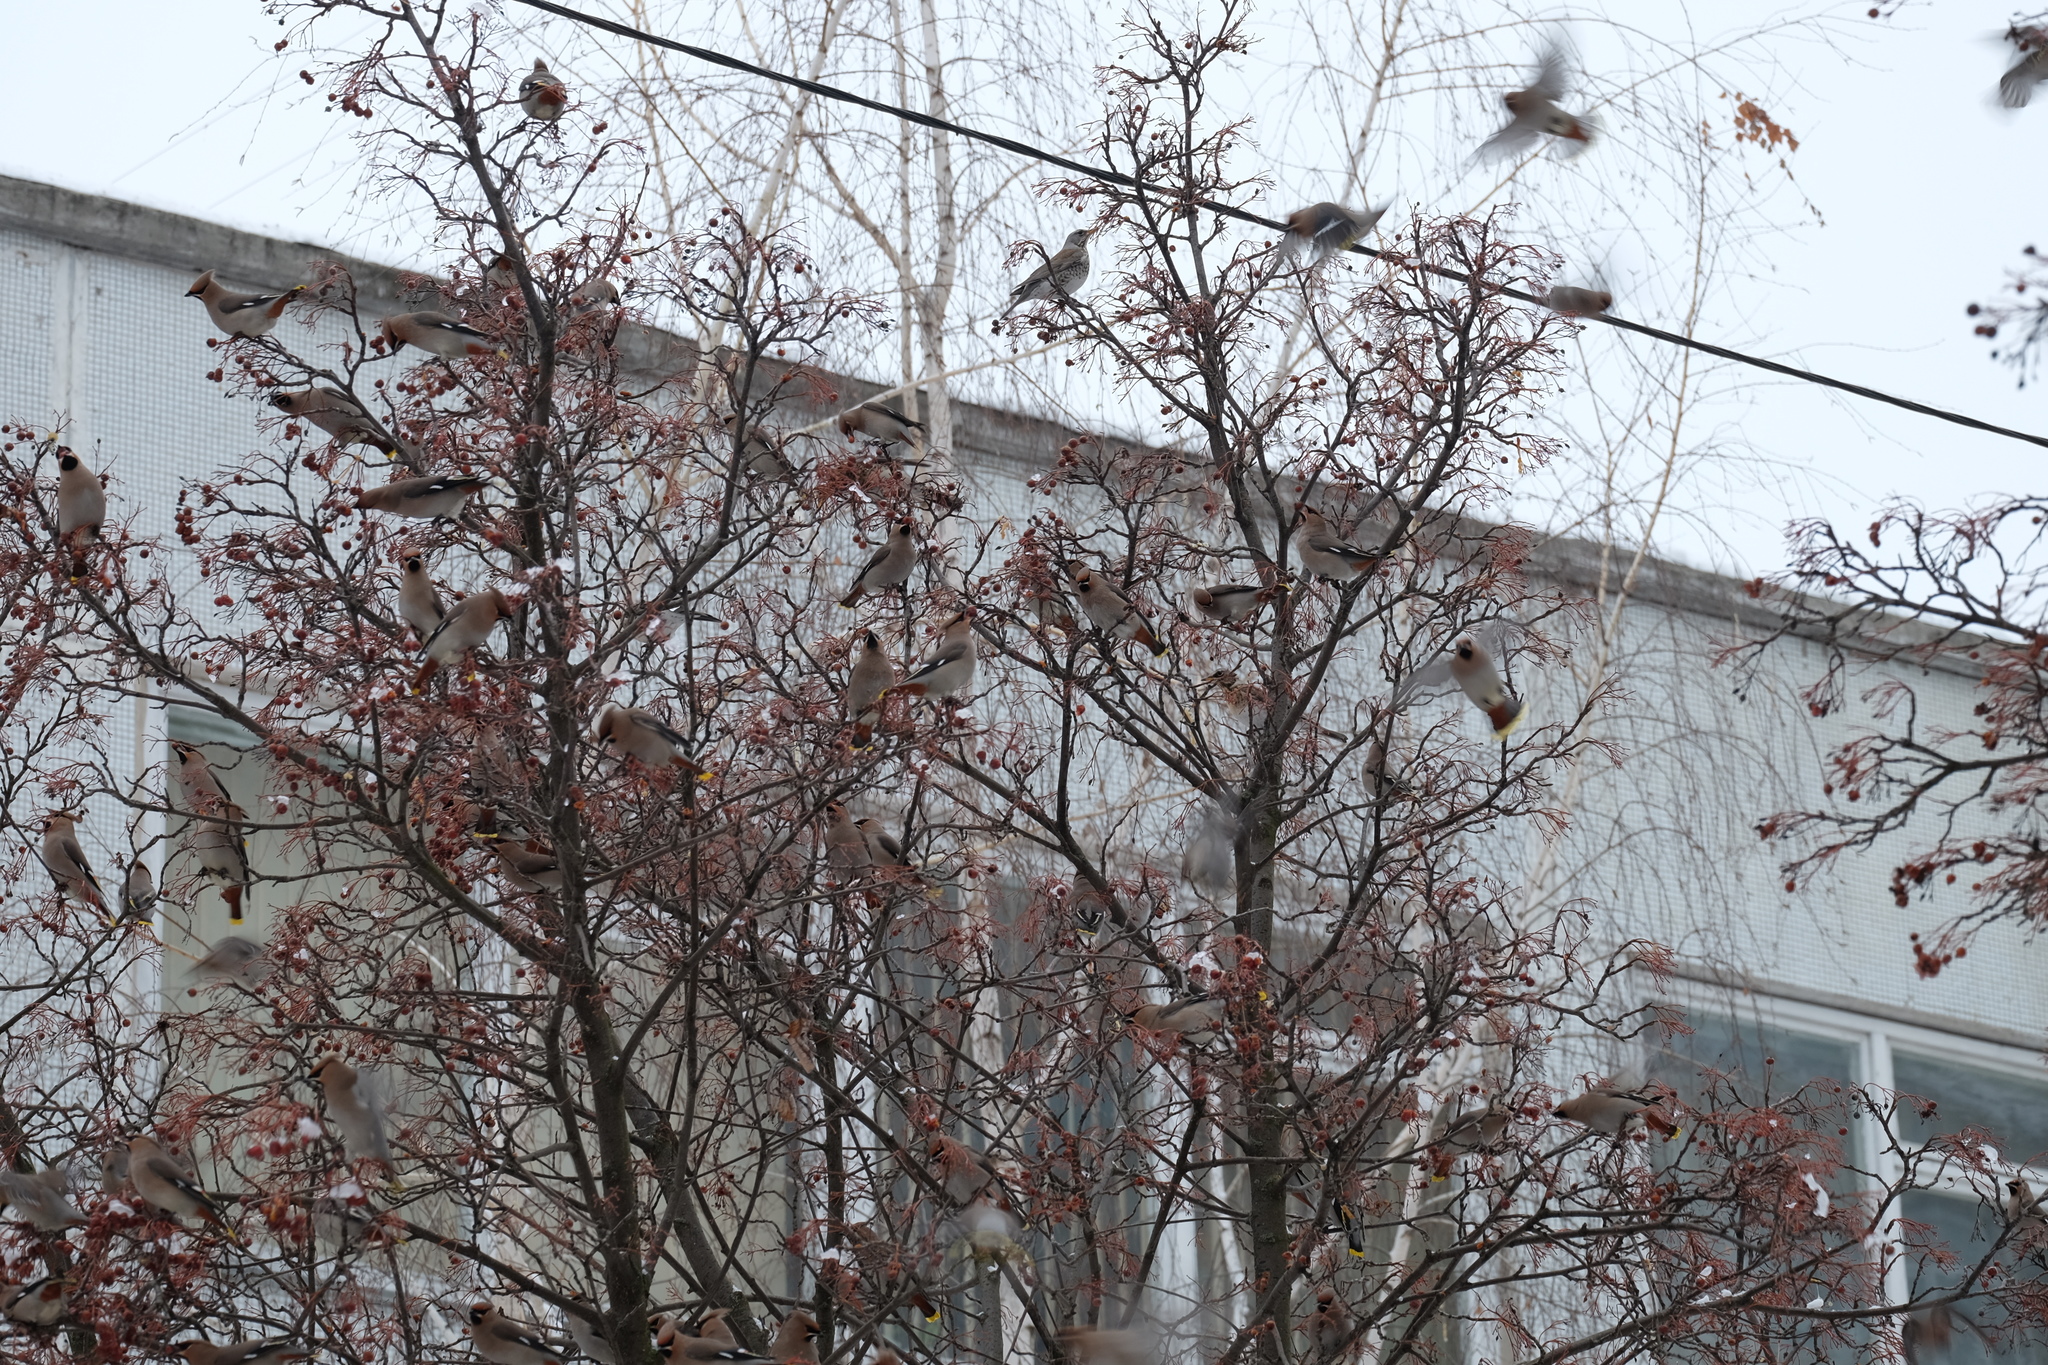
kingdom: Animalia
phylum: Chordata
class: Aves
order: Passeriformes
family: Bombycillidae
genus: Bombycilla
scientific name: Bombycilla garrulus
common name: Bohemian waxwing
